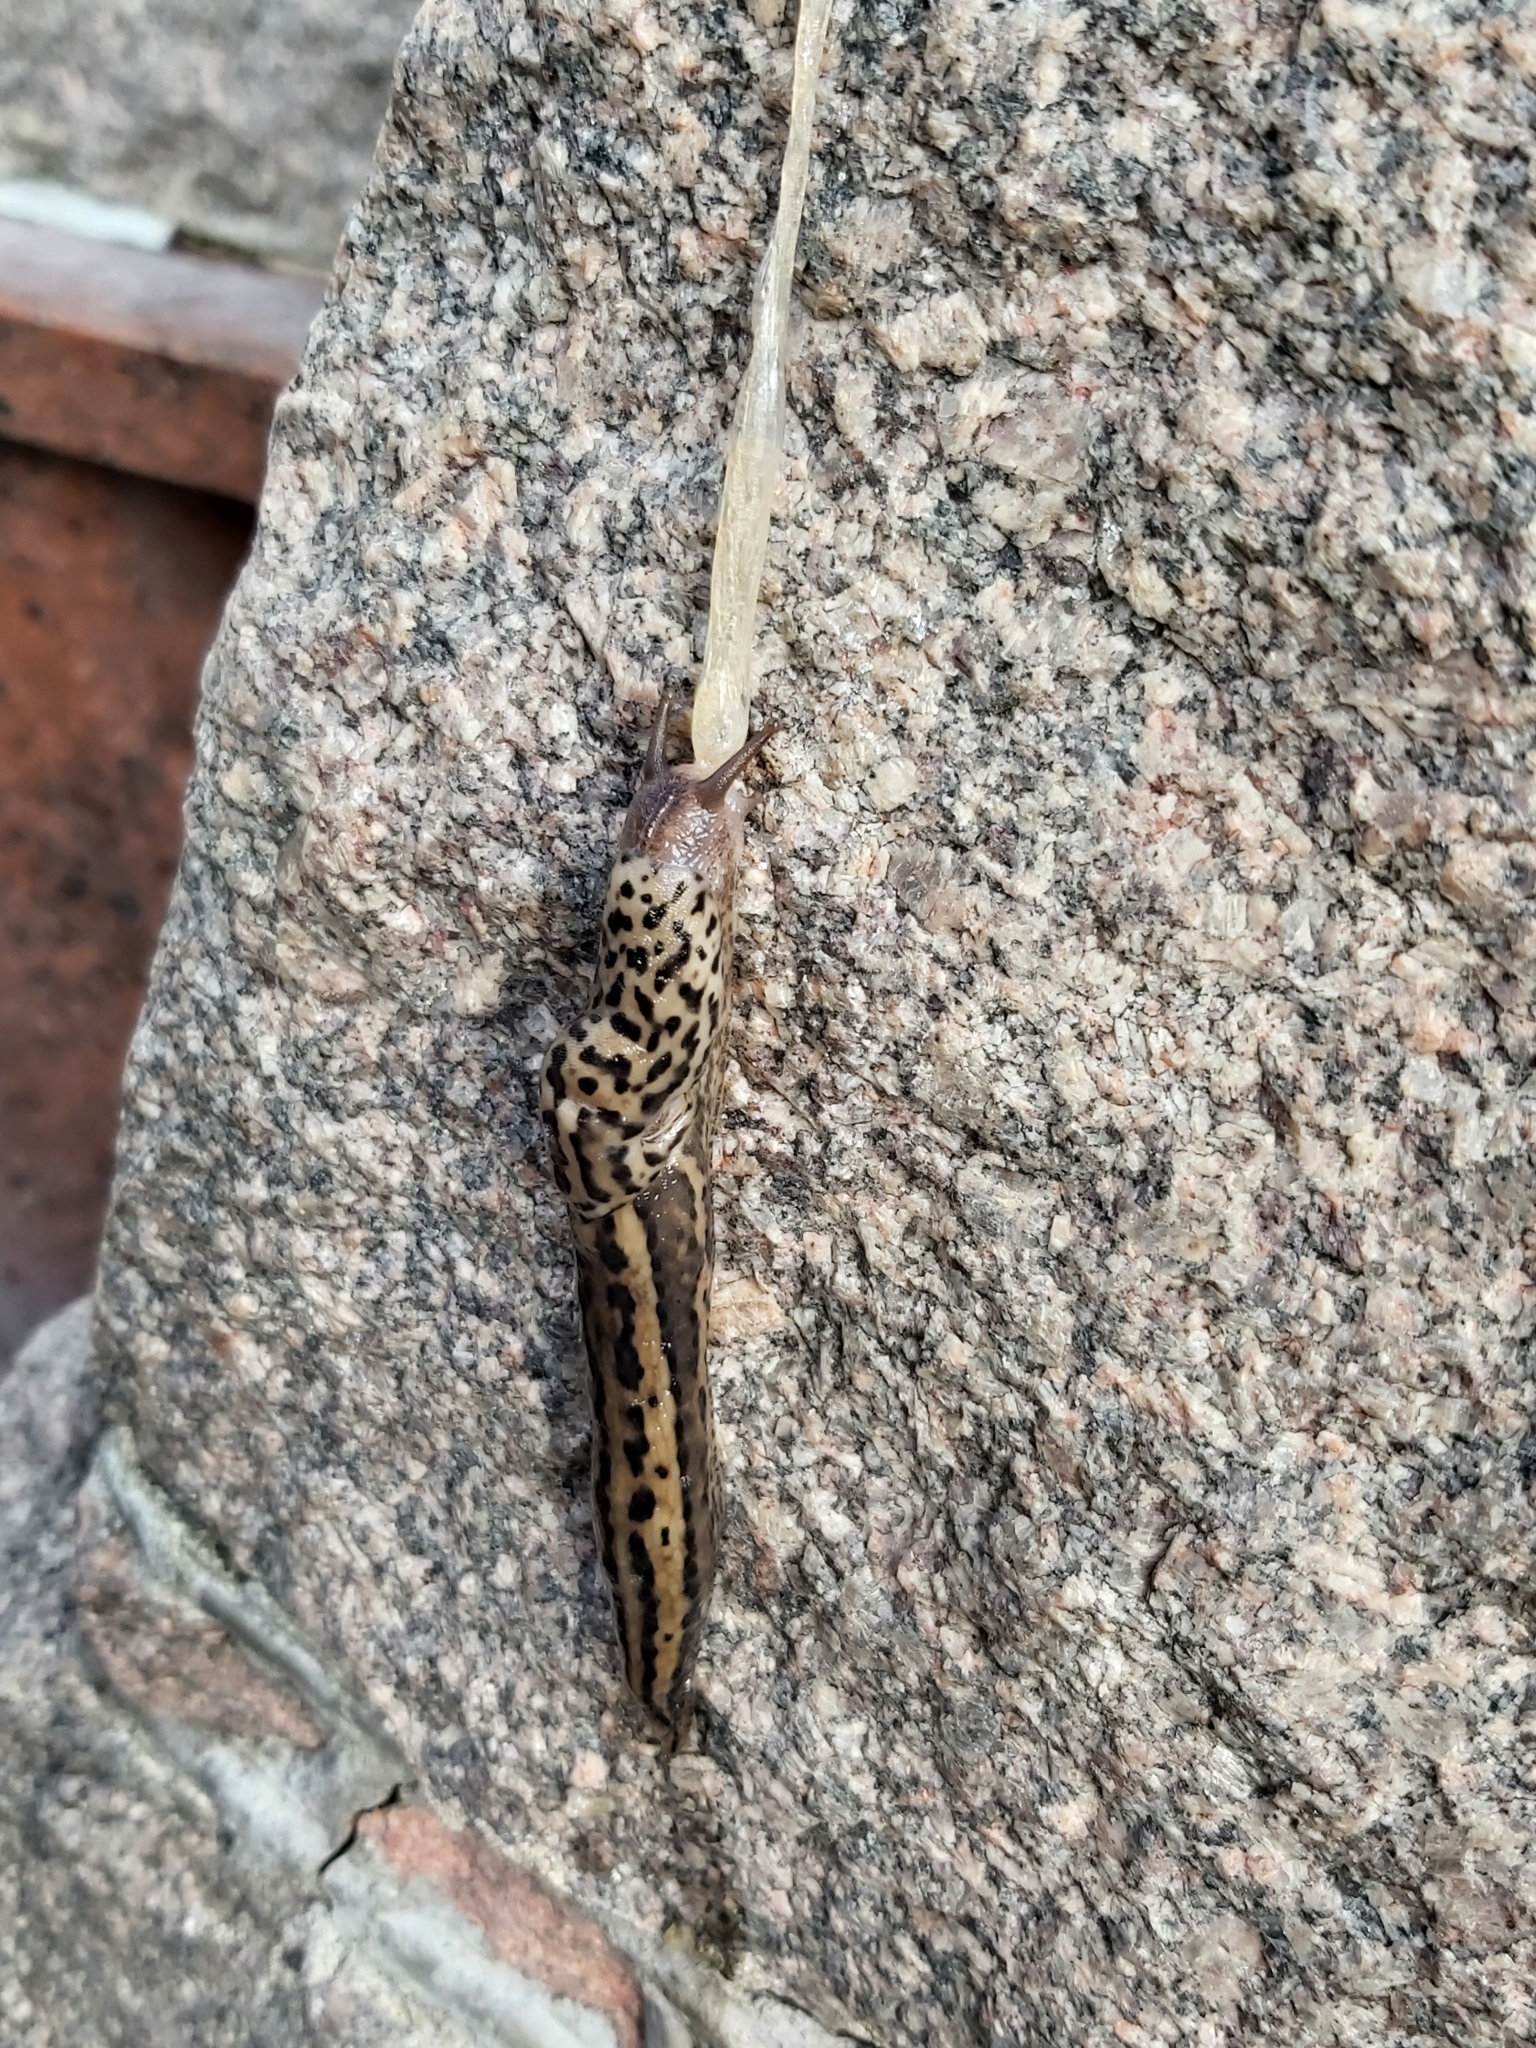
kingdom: Animalia
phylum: Mollusca
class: Gastropoda
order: Stylommatophora
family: Limacidae
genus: Limax
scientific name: Limax maximus
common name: Great grey slug
